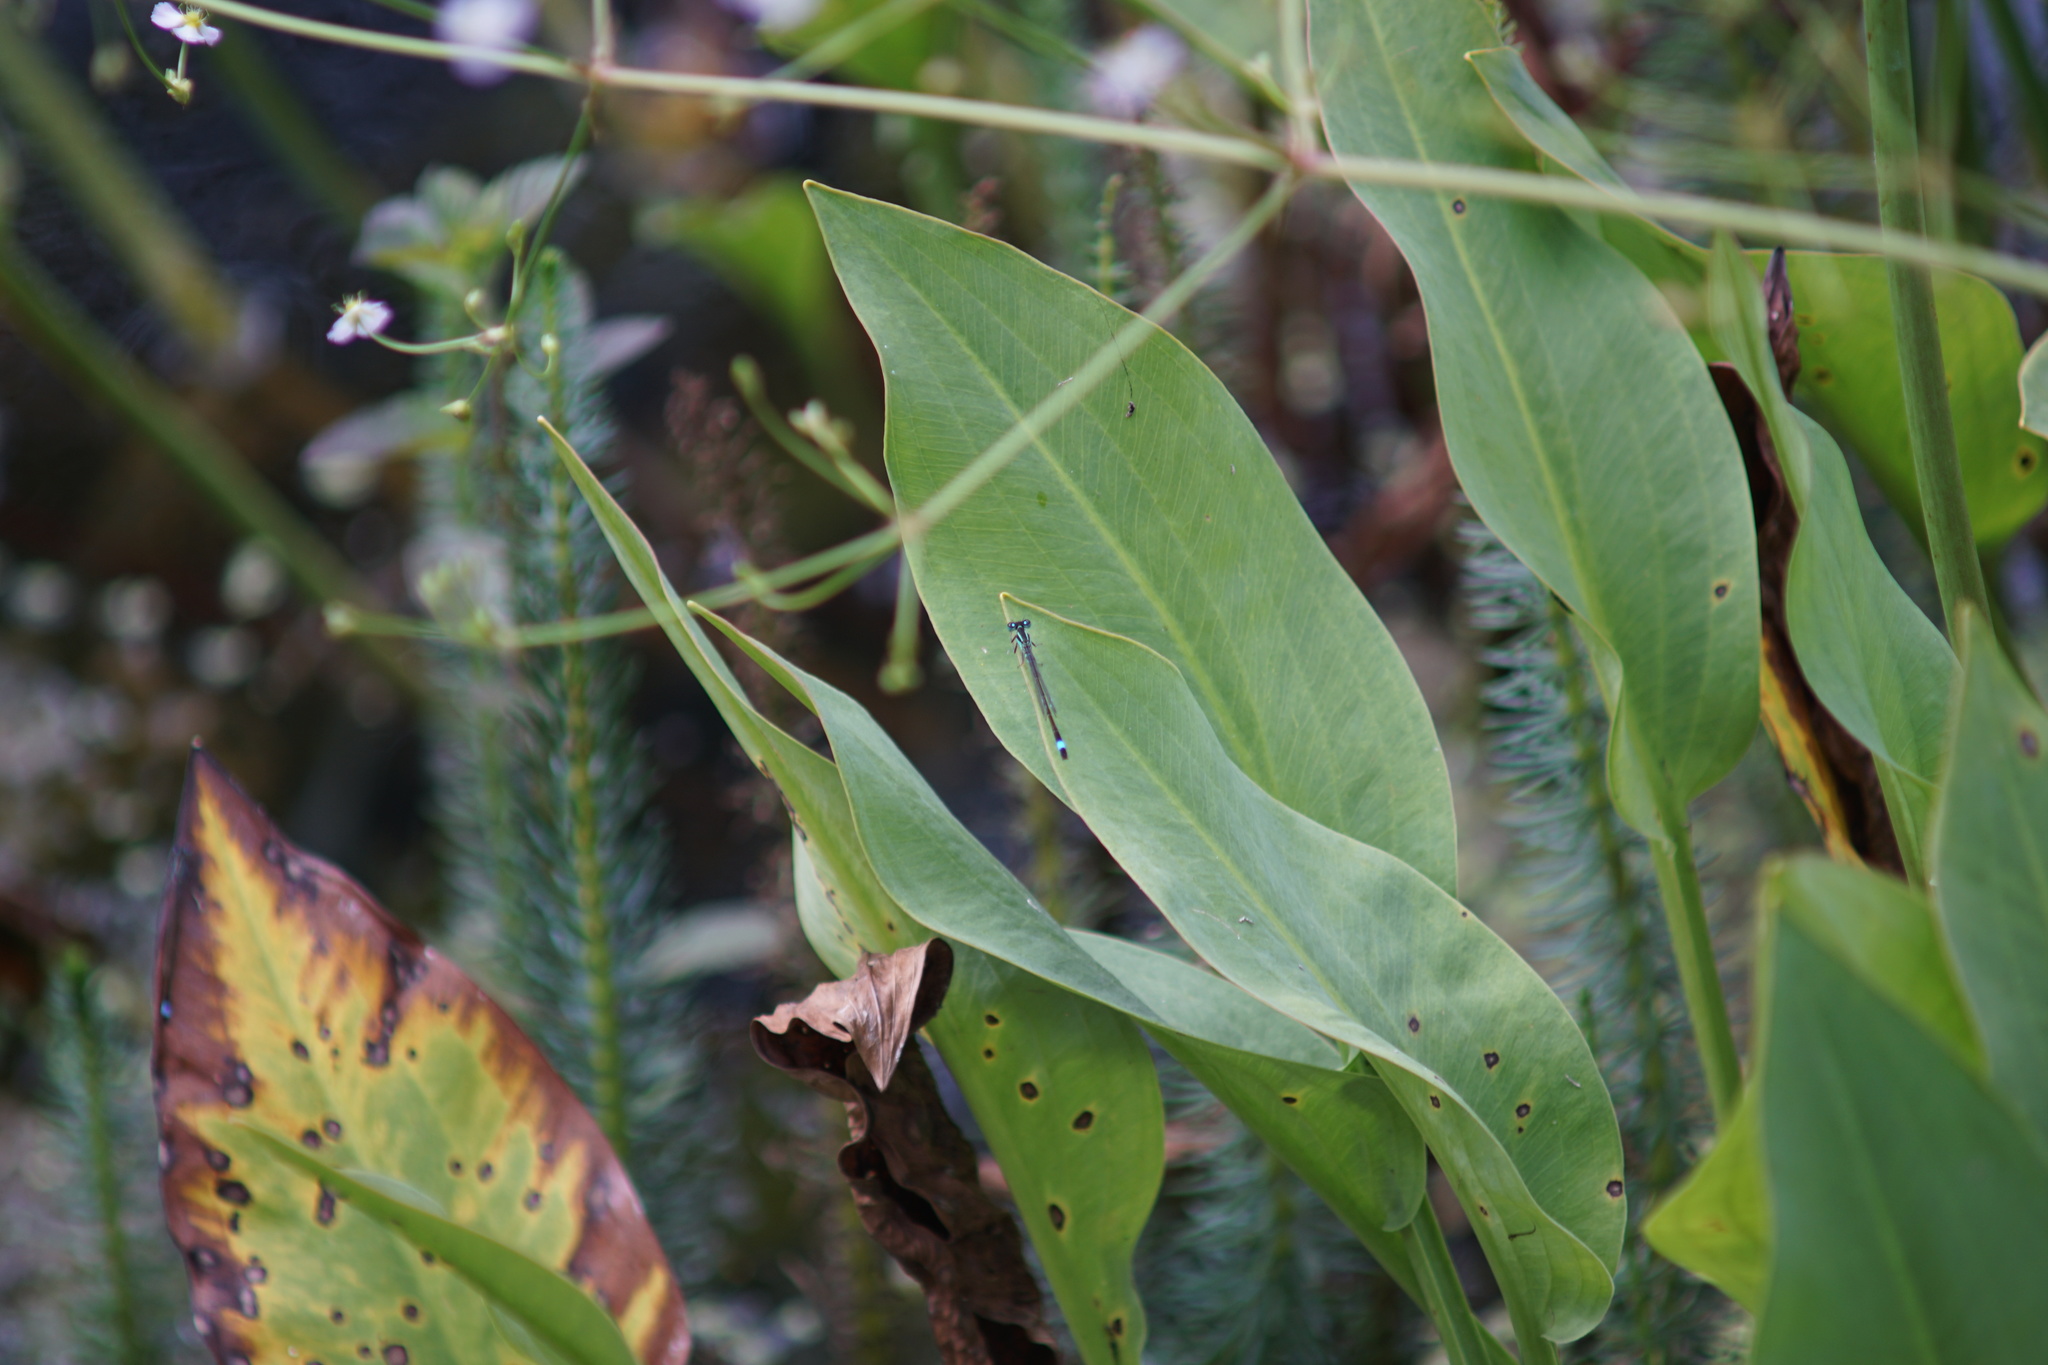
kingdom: Animalia
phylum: Arthropoda
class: Insecta
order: Odonata
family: Coenagrionidae
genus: Ischnura
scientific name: Ischnura elegans
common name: Blue-tailed damselfly
